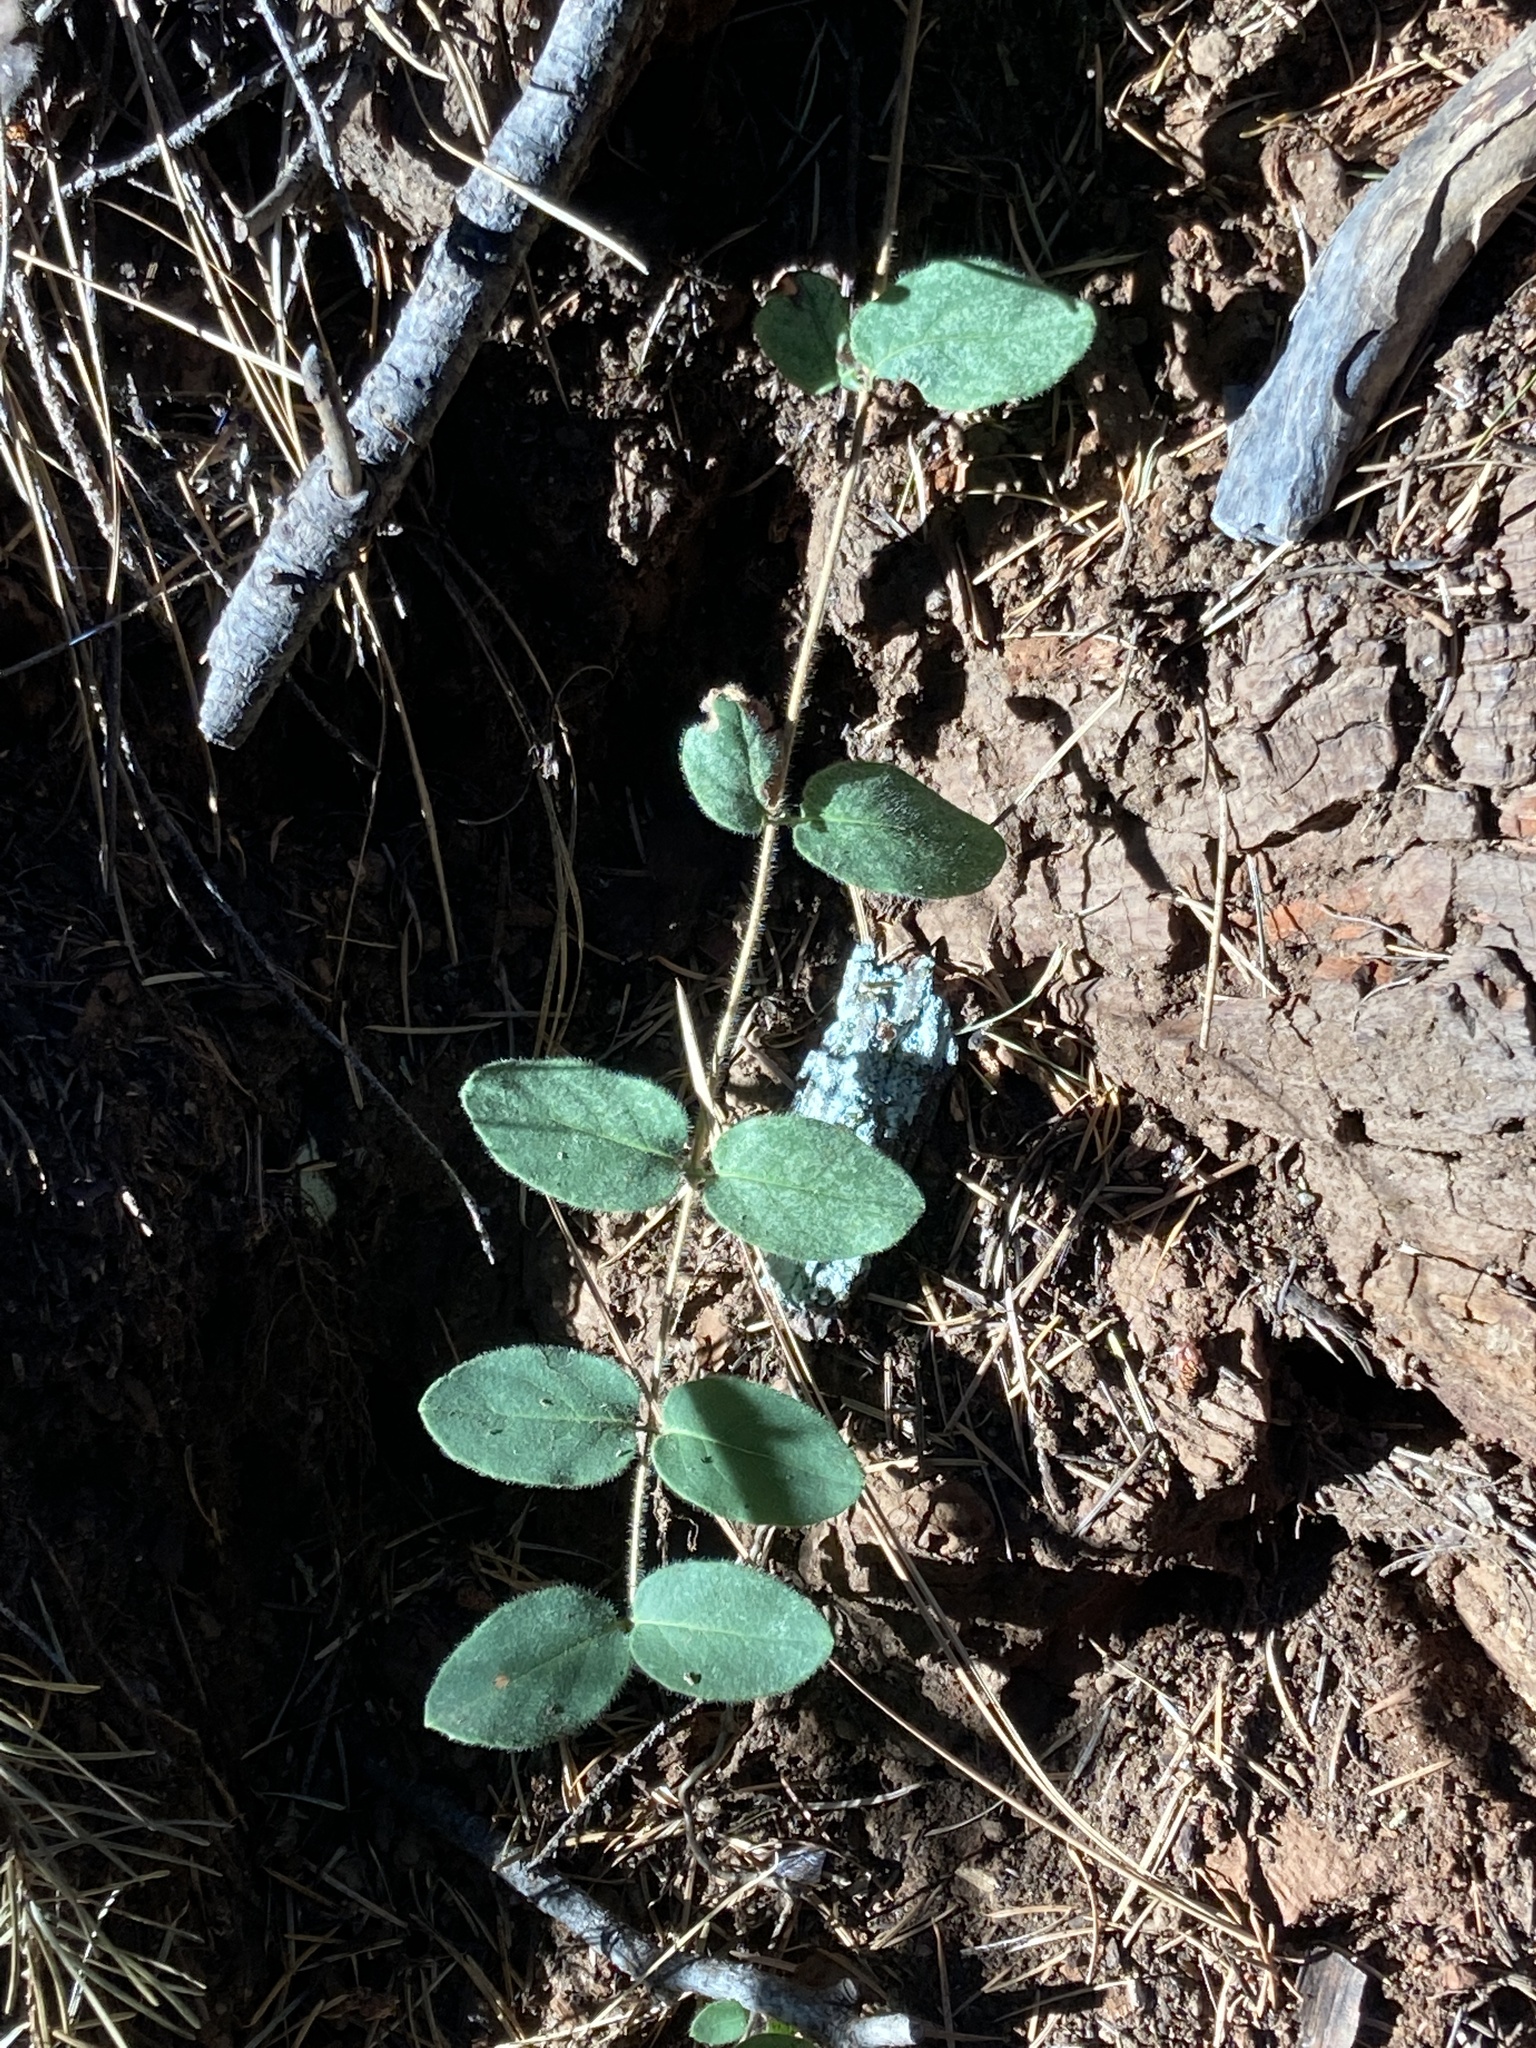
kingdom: Plantae
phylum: Tracheophyta
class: Magnoliopsida
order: Dipsacales
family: Caprifoliaceae
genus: Lonicera
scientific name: Lonicera hispidula
